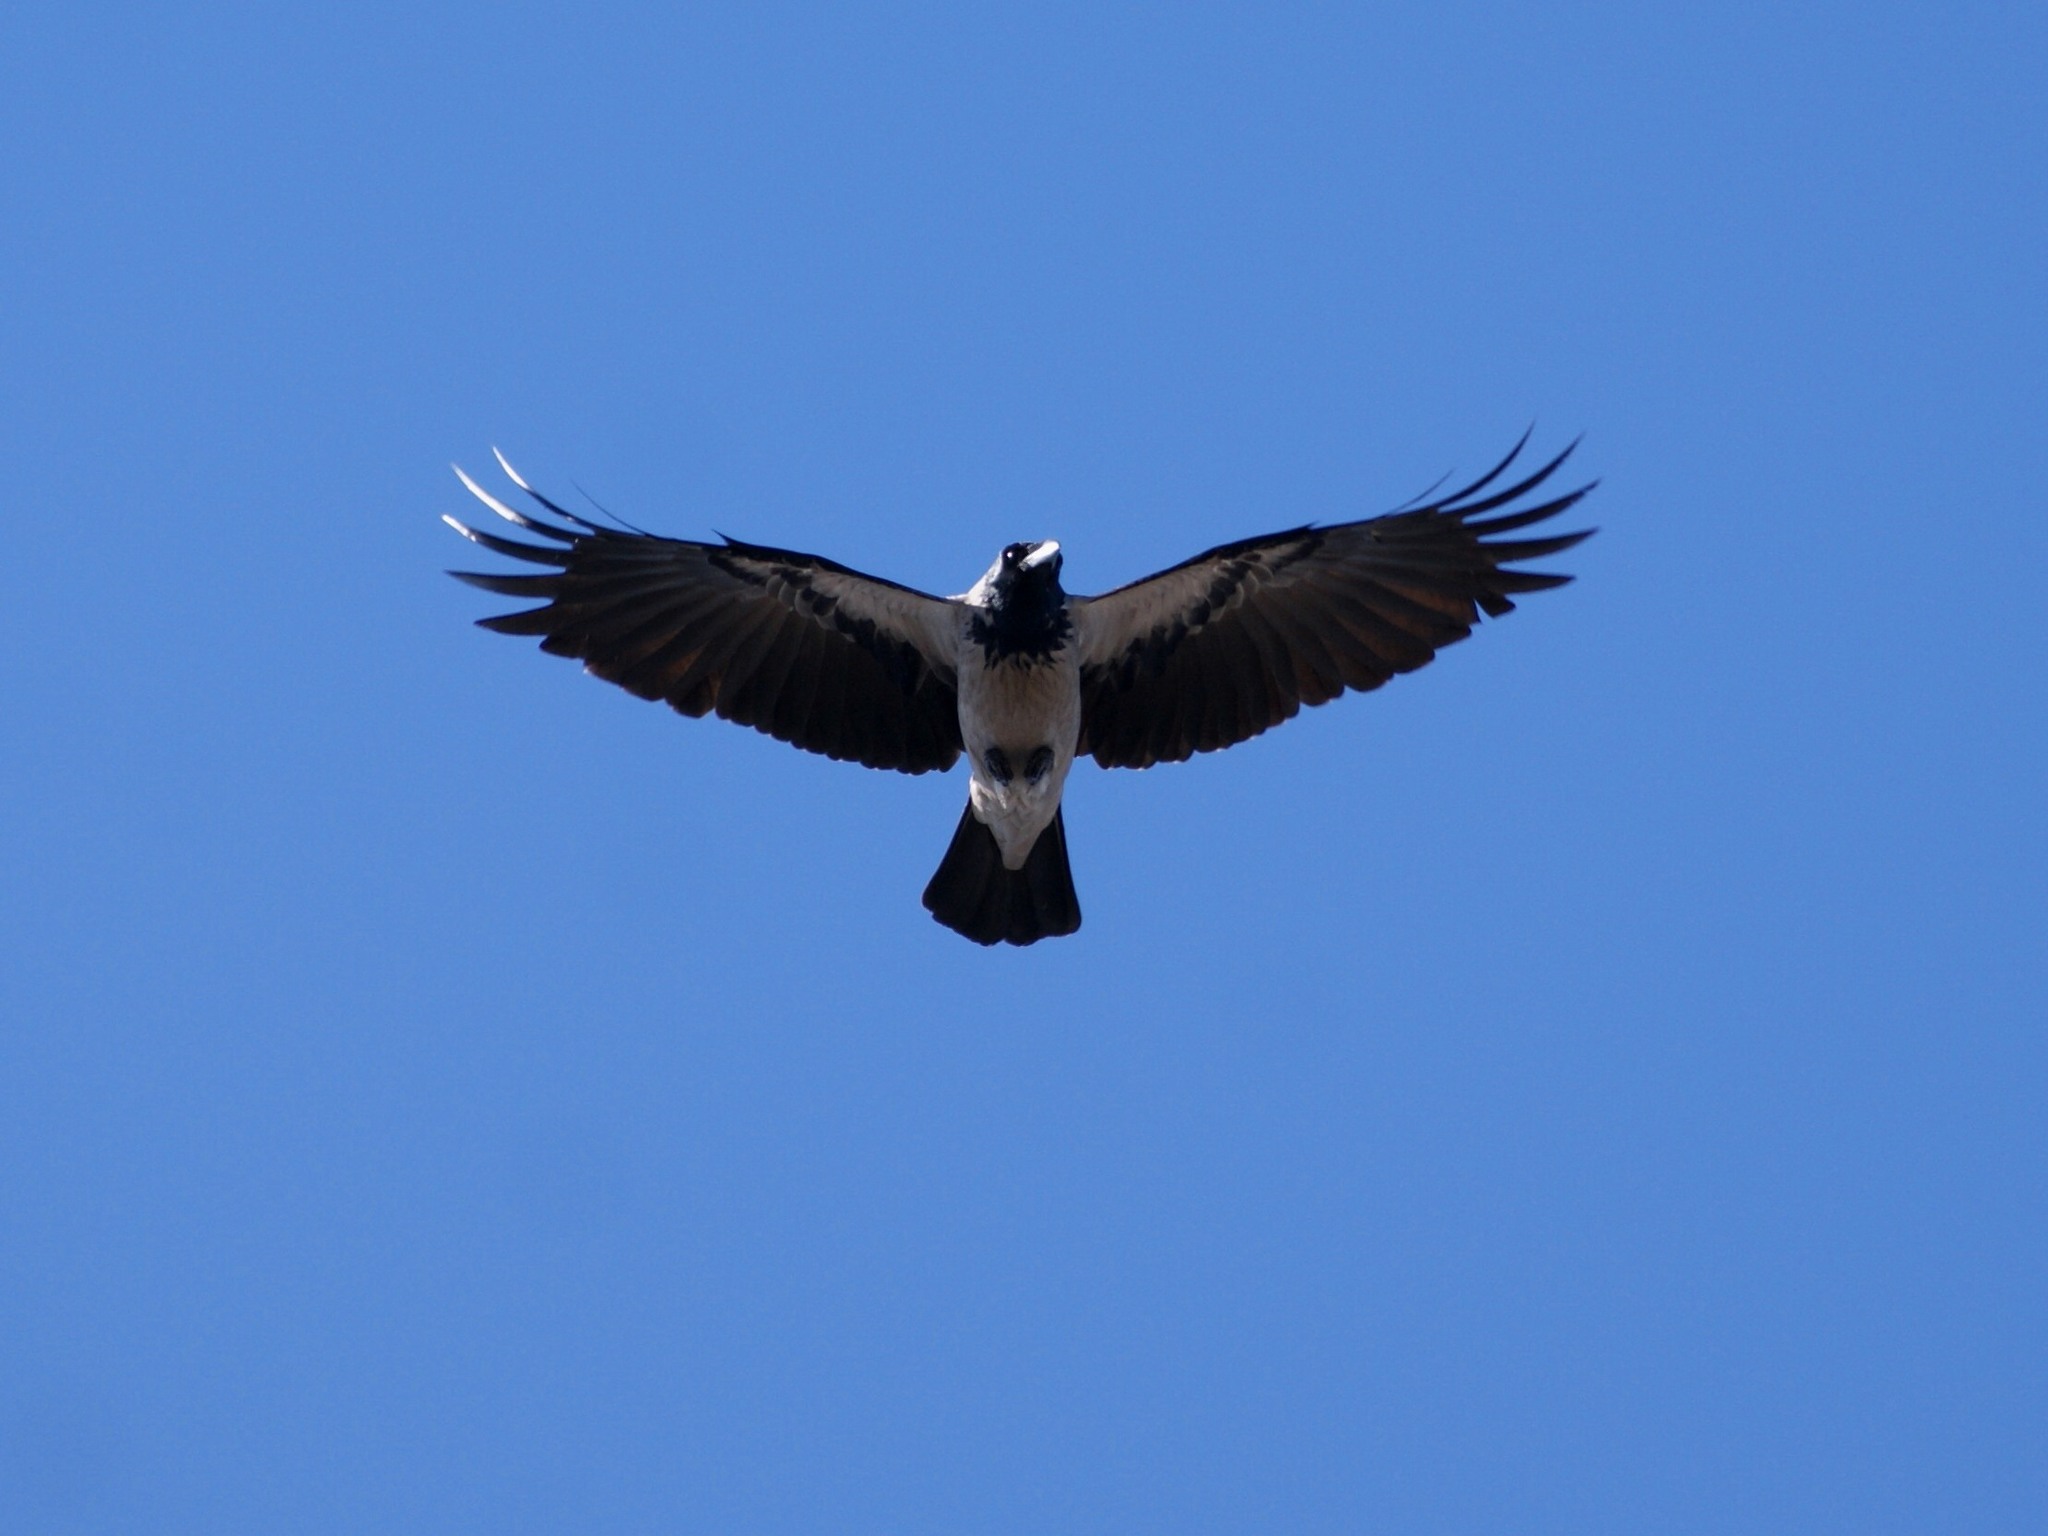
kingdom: Animalia
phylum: Chordata
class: Aves
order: Passeriformes
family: Corvidae
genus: Corvus
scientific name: Corvus cornix
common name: Hooded crow
